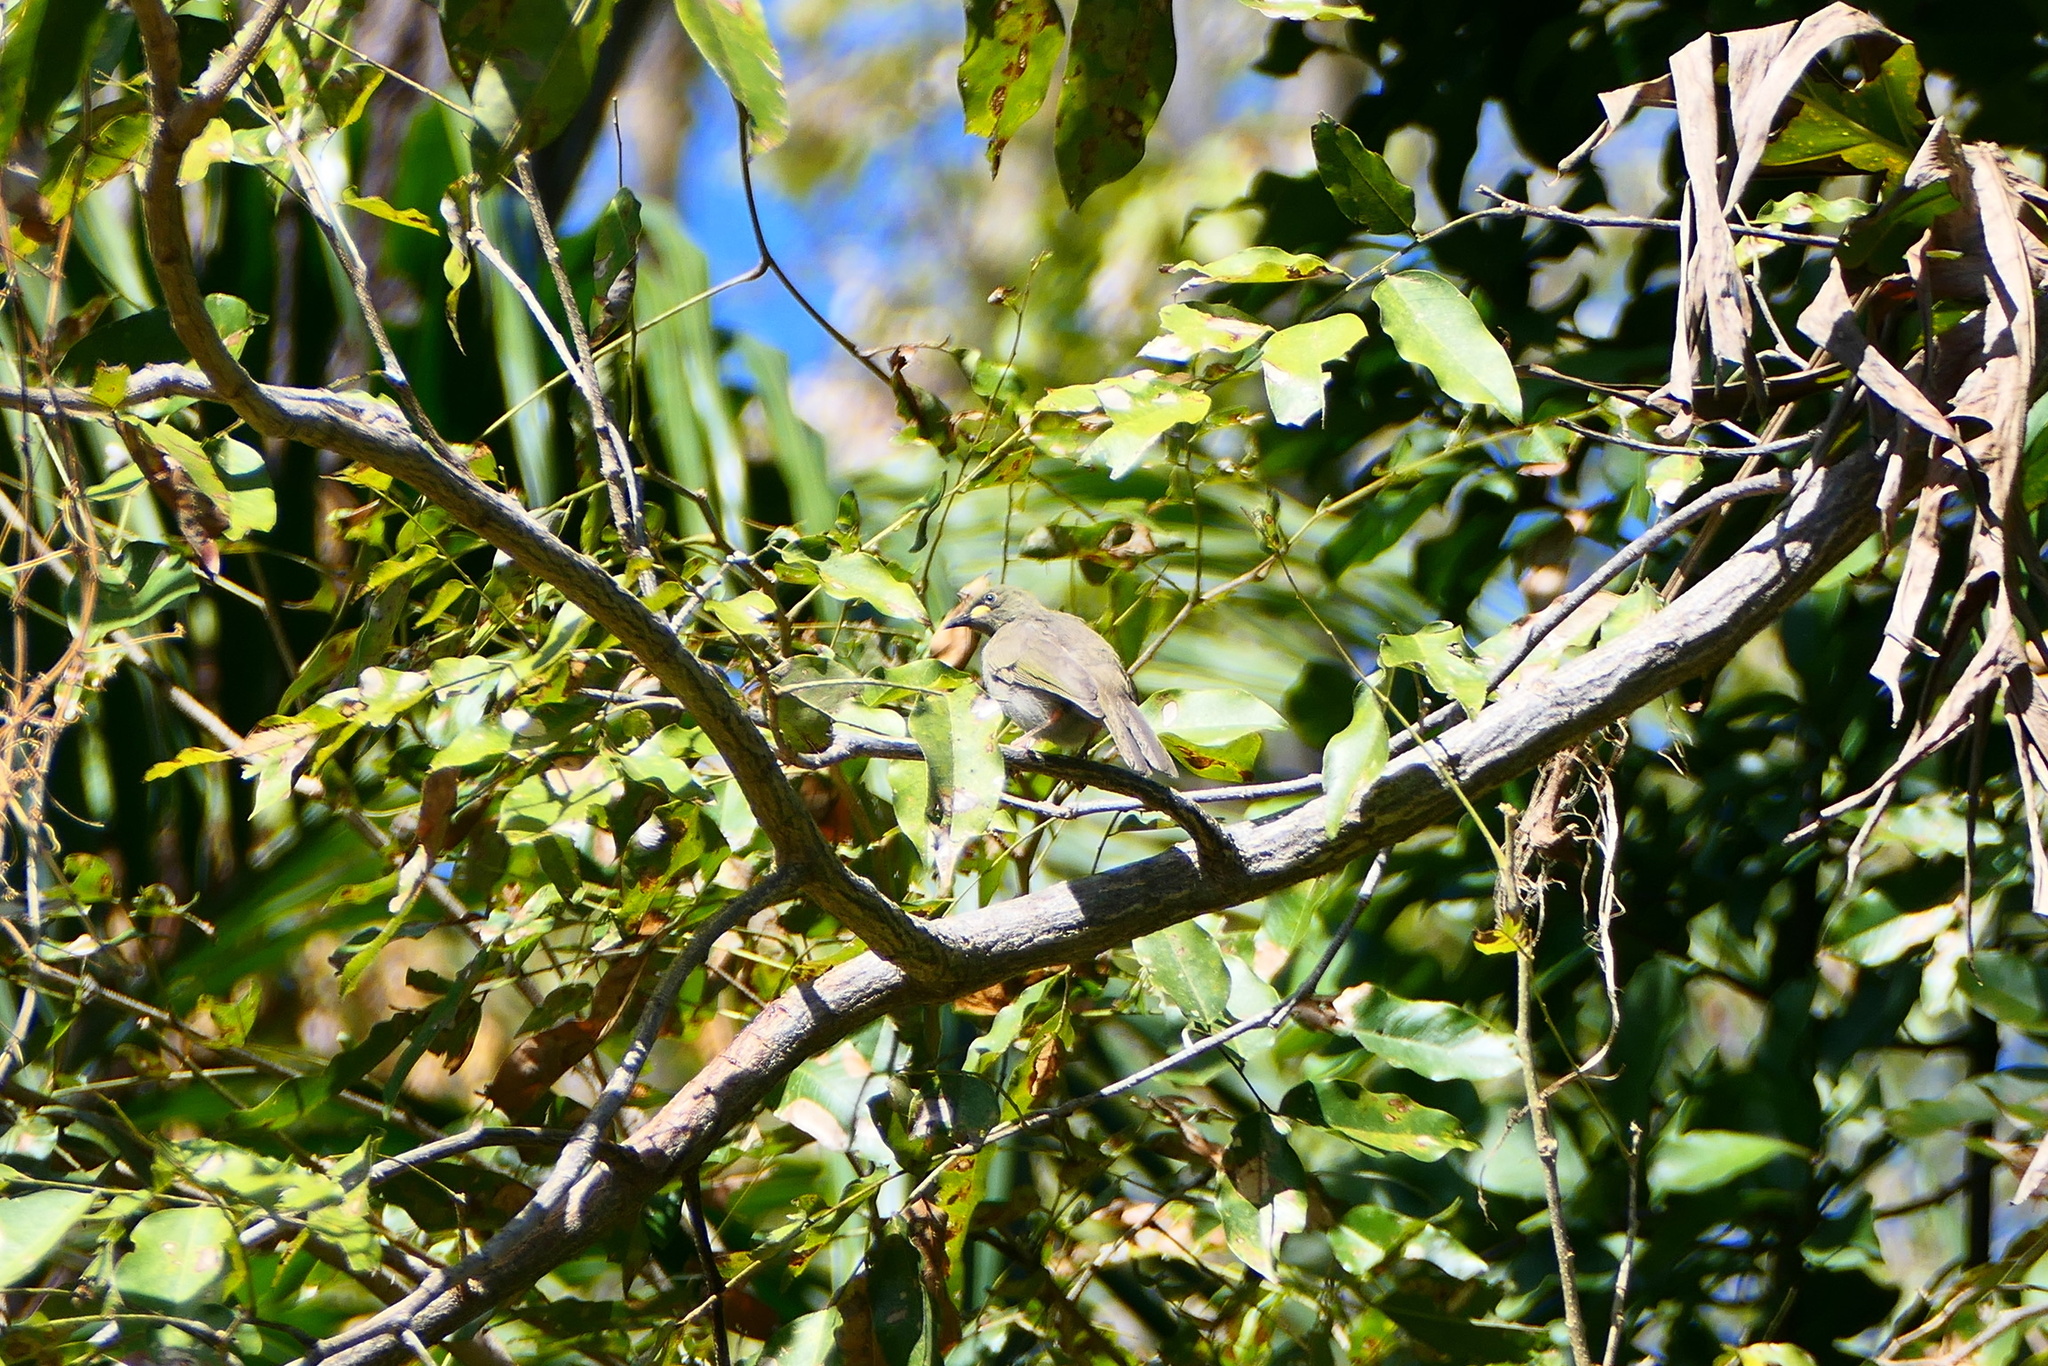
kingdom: Animalia
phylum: Chordata
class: Aves
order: Passeriformes
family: Meliphagidae
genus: Stomiopera
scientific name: Stomiopera unicolor
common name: White-gaped honeyeater
